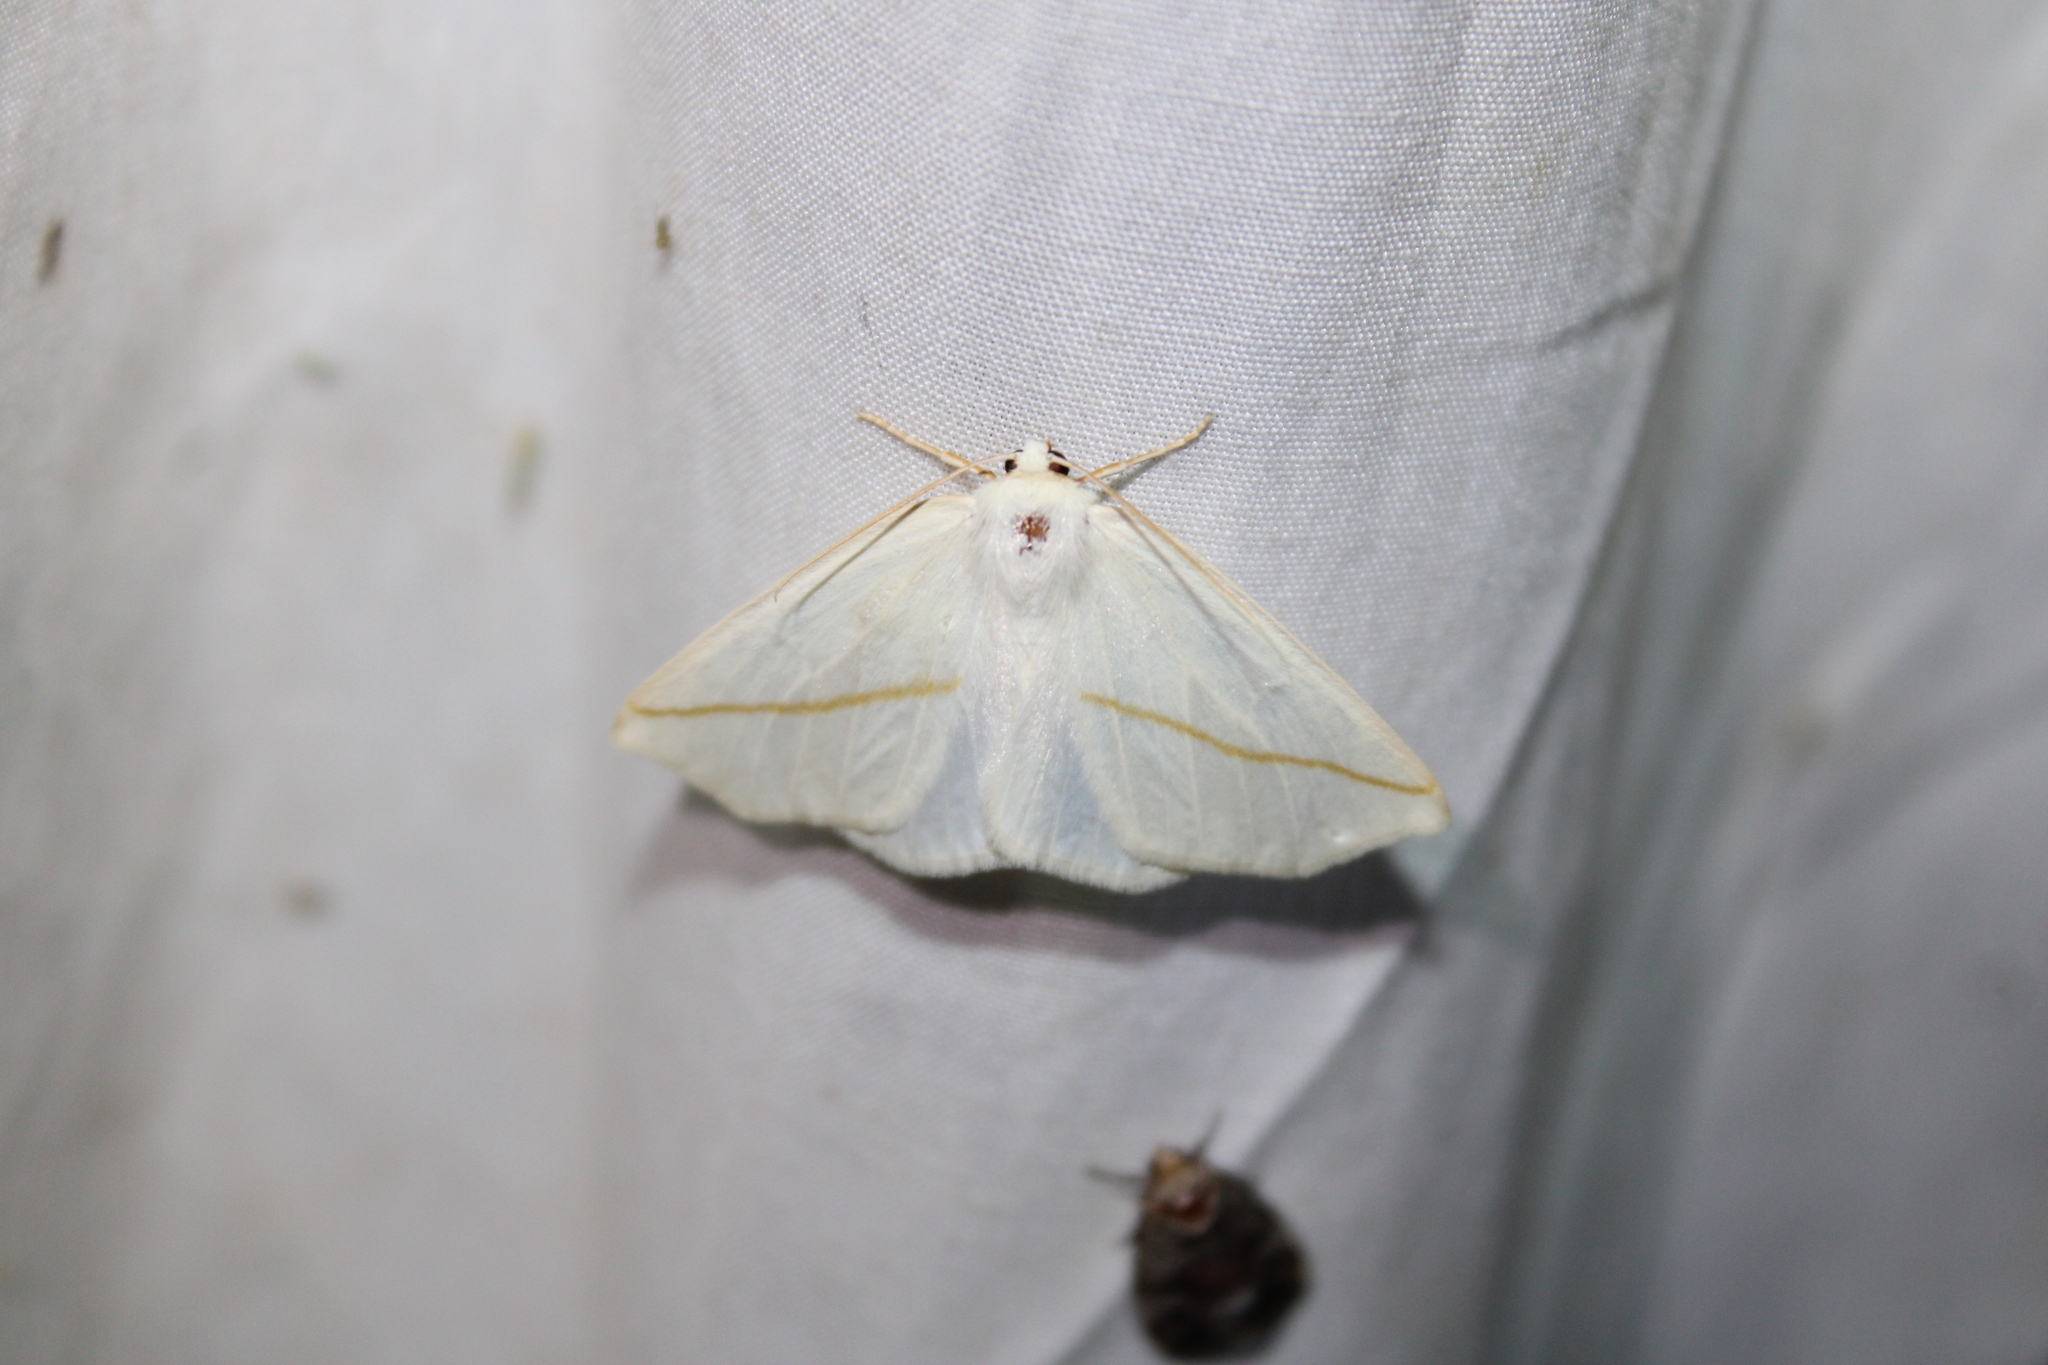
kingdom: Animalia
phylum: Arthropoda
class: Insecta
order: Lepidoptera
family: Geometridae
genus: Tetracis
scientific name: Tetracis cachexiata
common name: White slant-line
